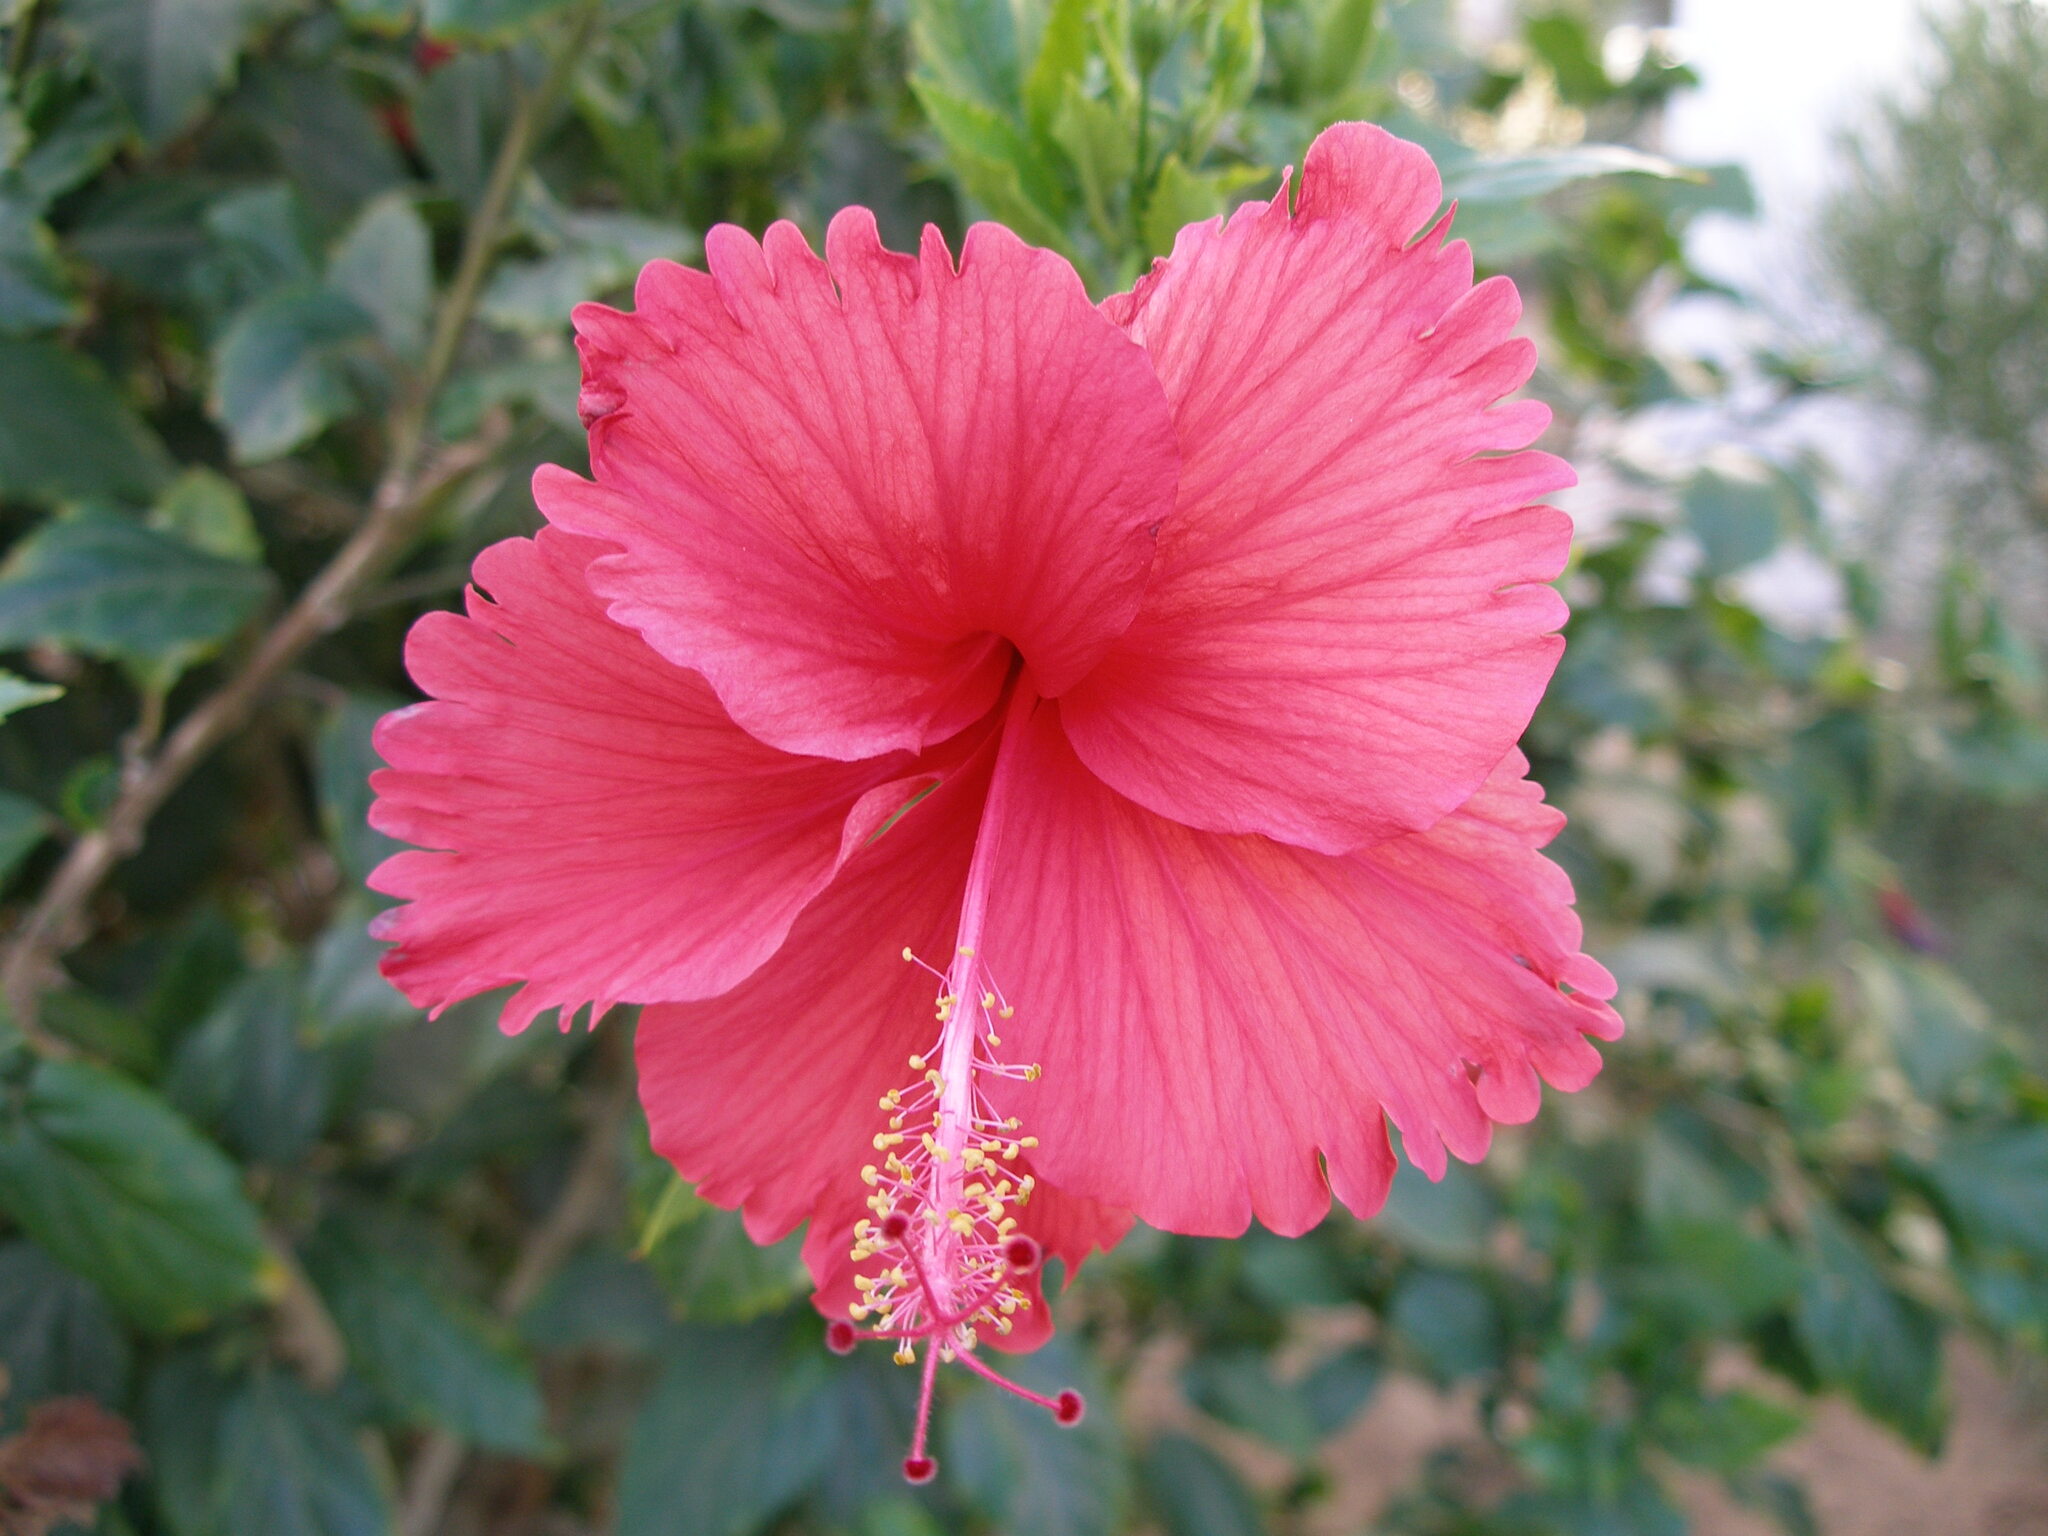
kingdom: Plantae
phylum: Tracheophyta
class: Magnoliopsida
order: Malvales
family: Malvaceae
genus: Hibiscus
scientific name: Hibiscus archeri
